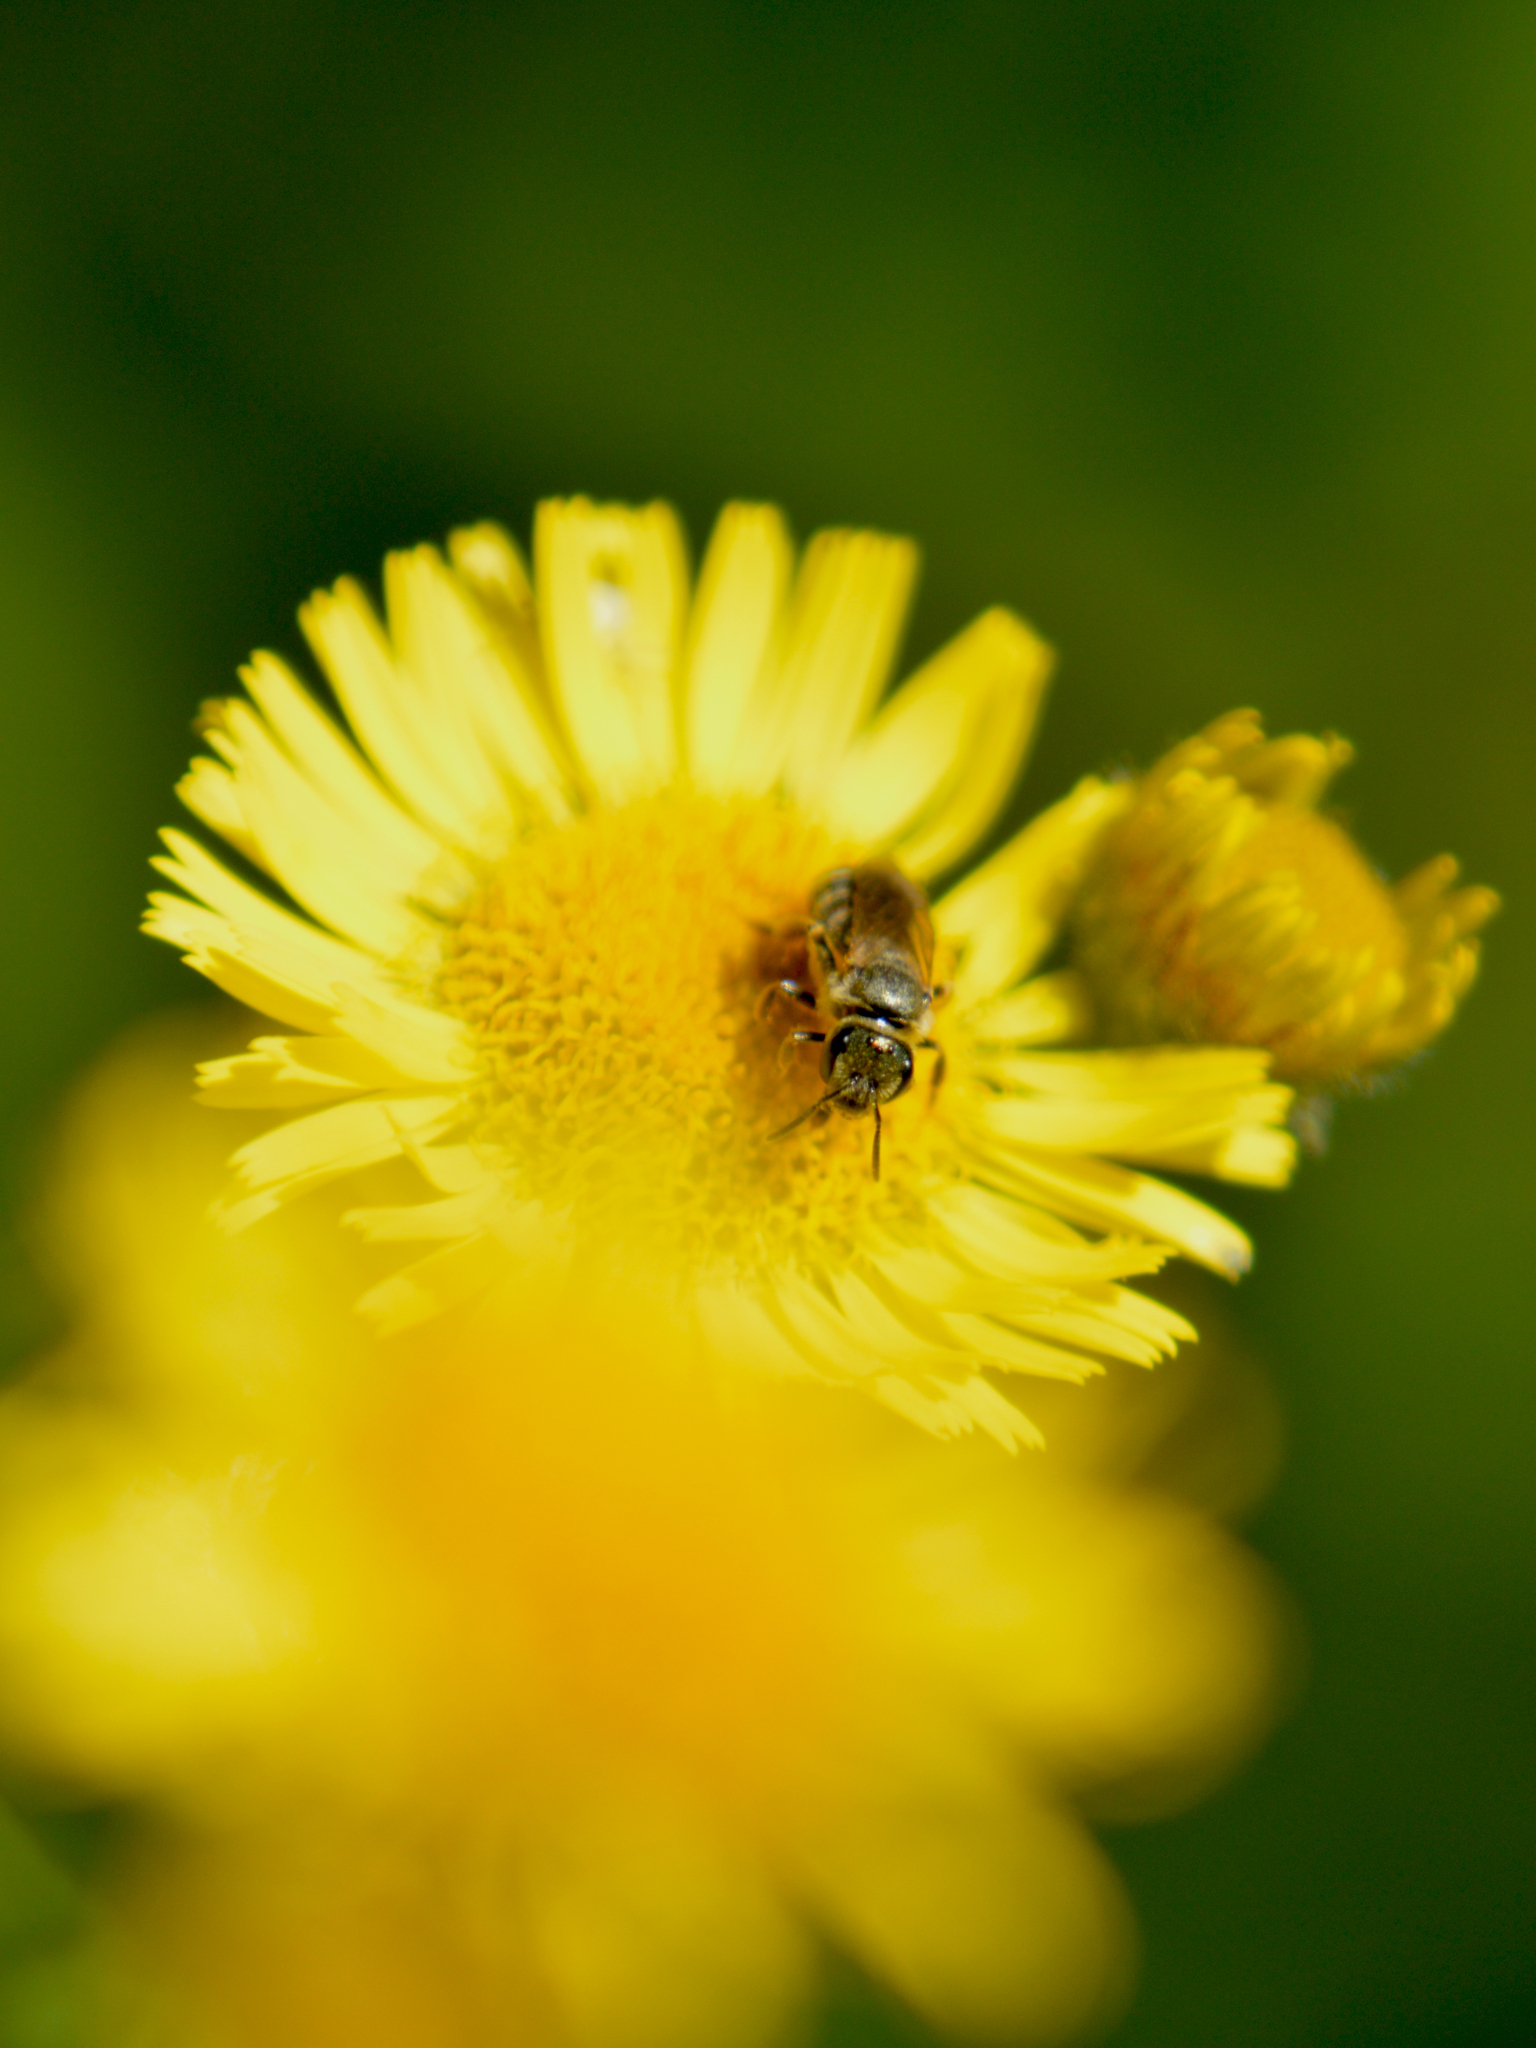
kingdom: Animalia
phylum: Arthropoda
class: Insecta
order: Hymenoptera
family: Halictidae
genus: Seladonia
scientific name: Seladonia
